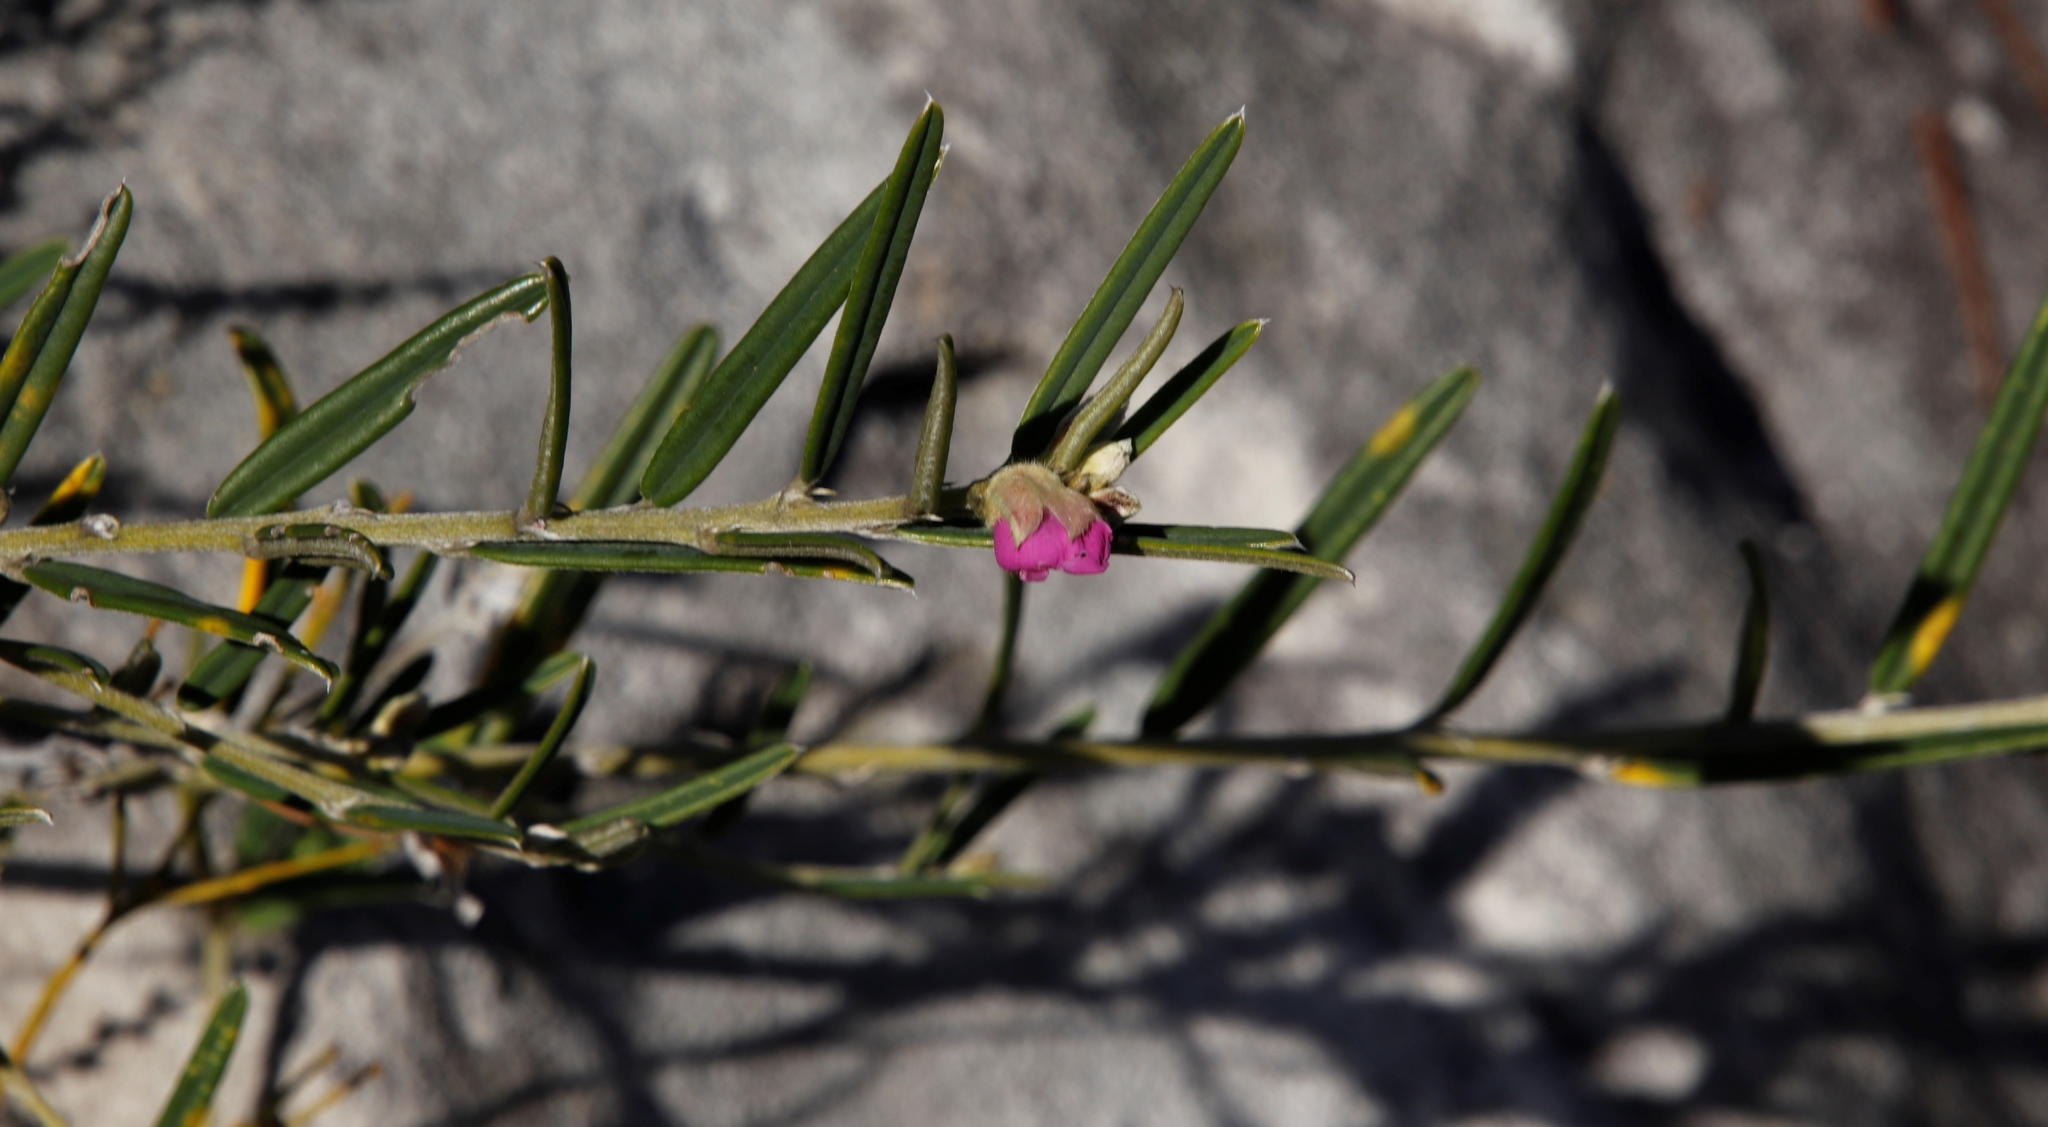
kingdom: Plantae
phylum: Tracheophyta
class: Magnoliopsida
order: Fabales
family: Fabaceae
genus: Podalyria
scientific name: Podalyria oleifolia
